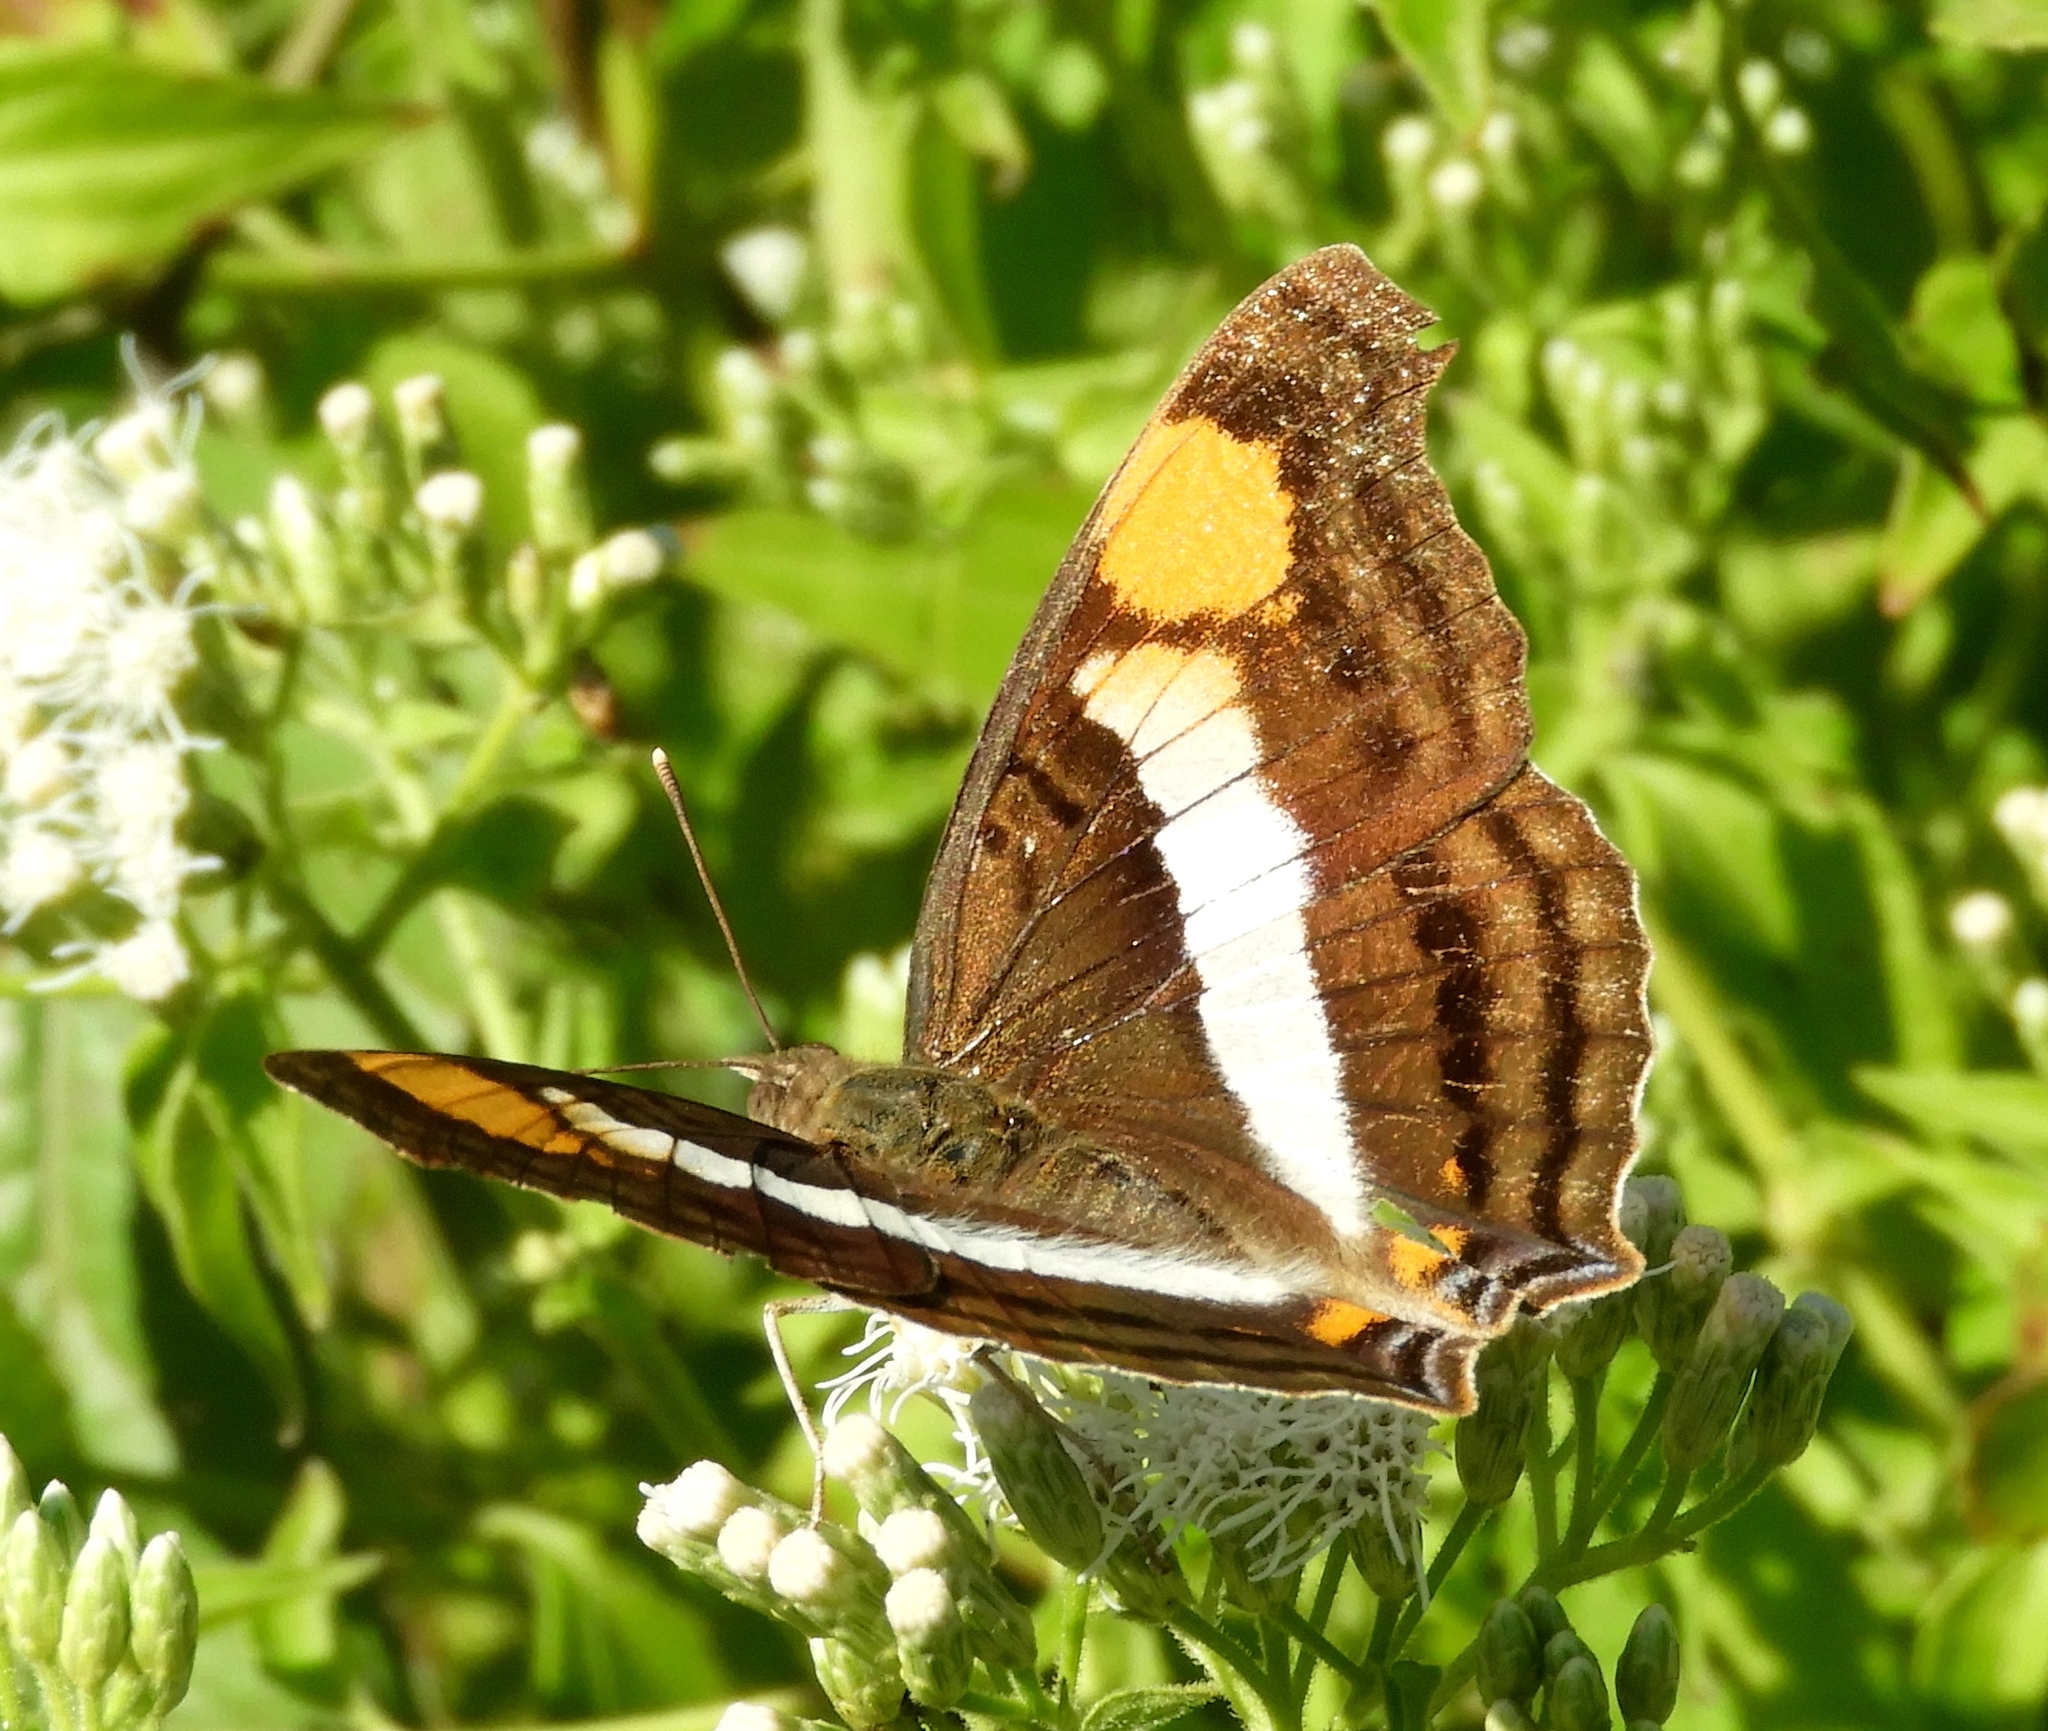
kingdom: Animalia
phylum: Arthropoda
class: Insecta
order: Lepidoptera
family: Nymphalidae
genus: Doxocopa
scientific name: Doxocopa laure
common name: Silver emperor
